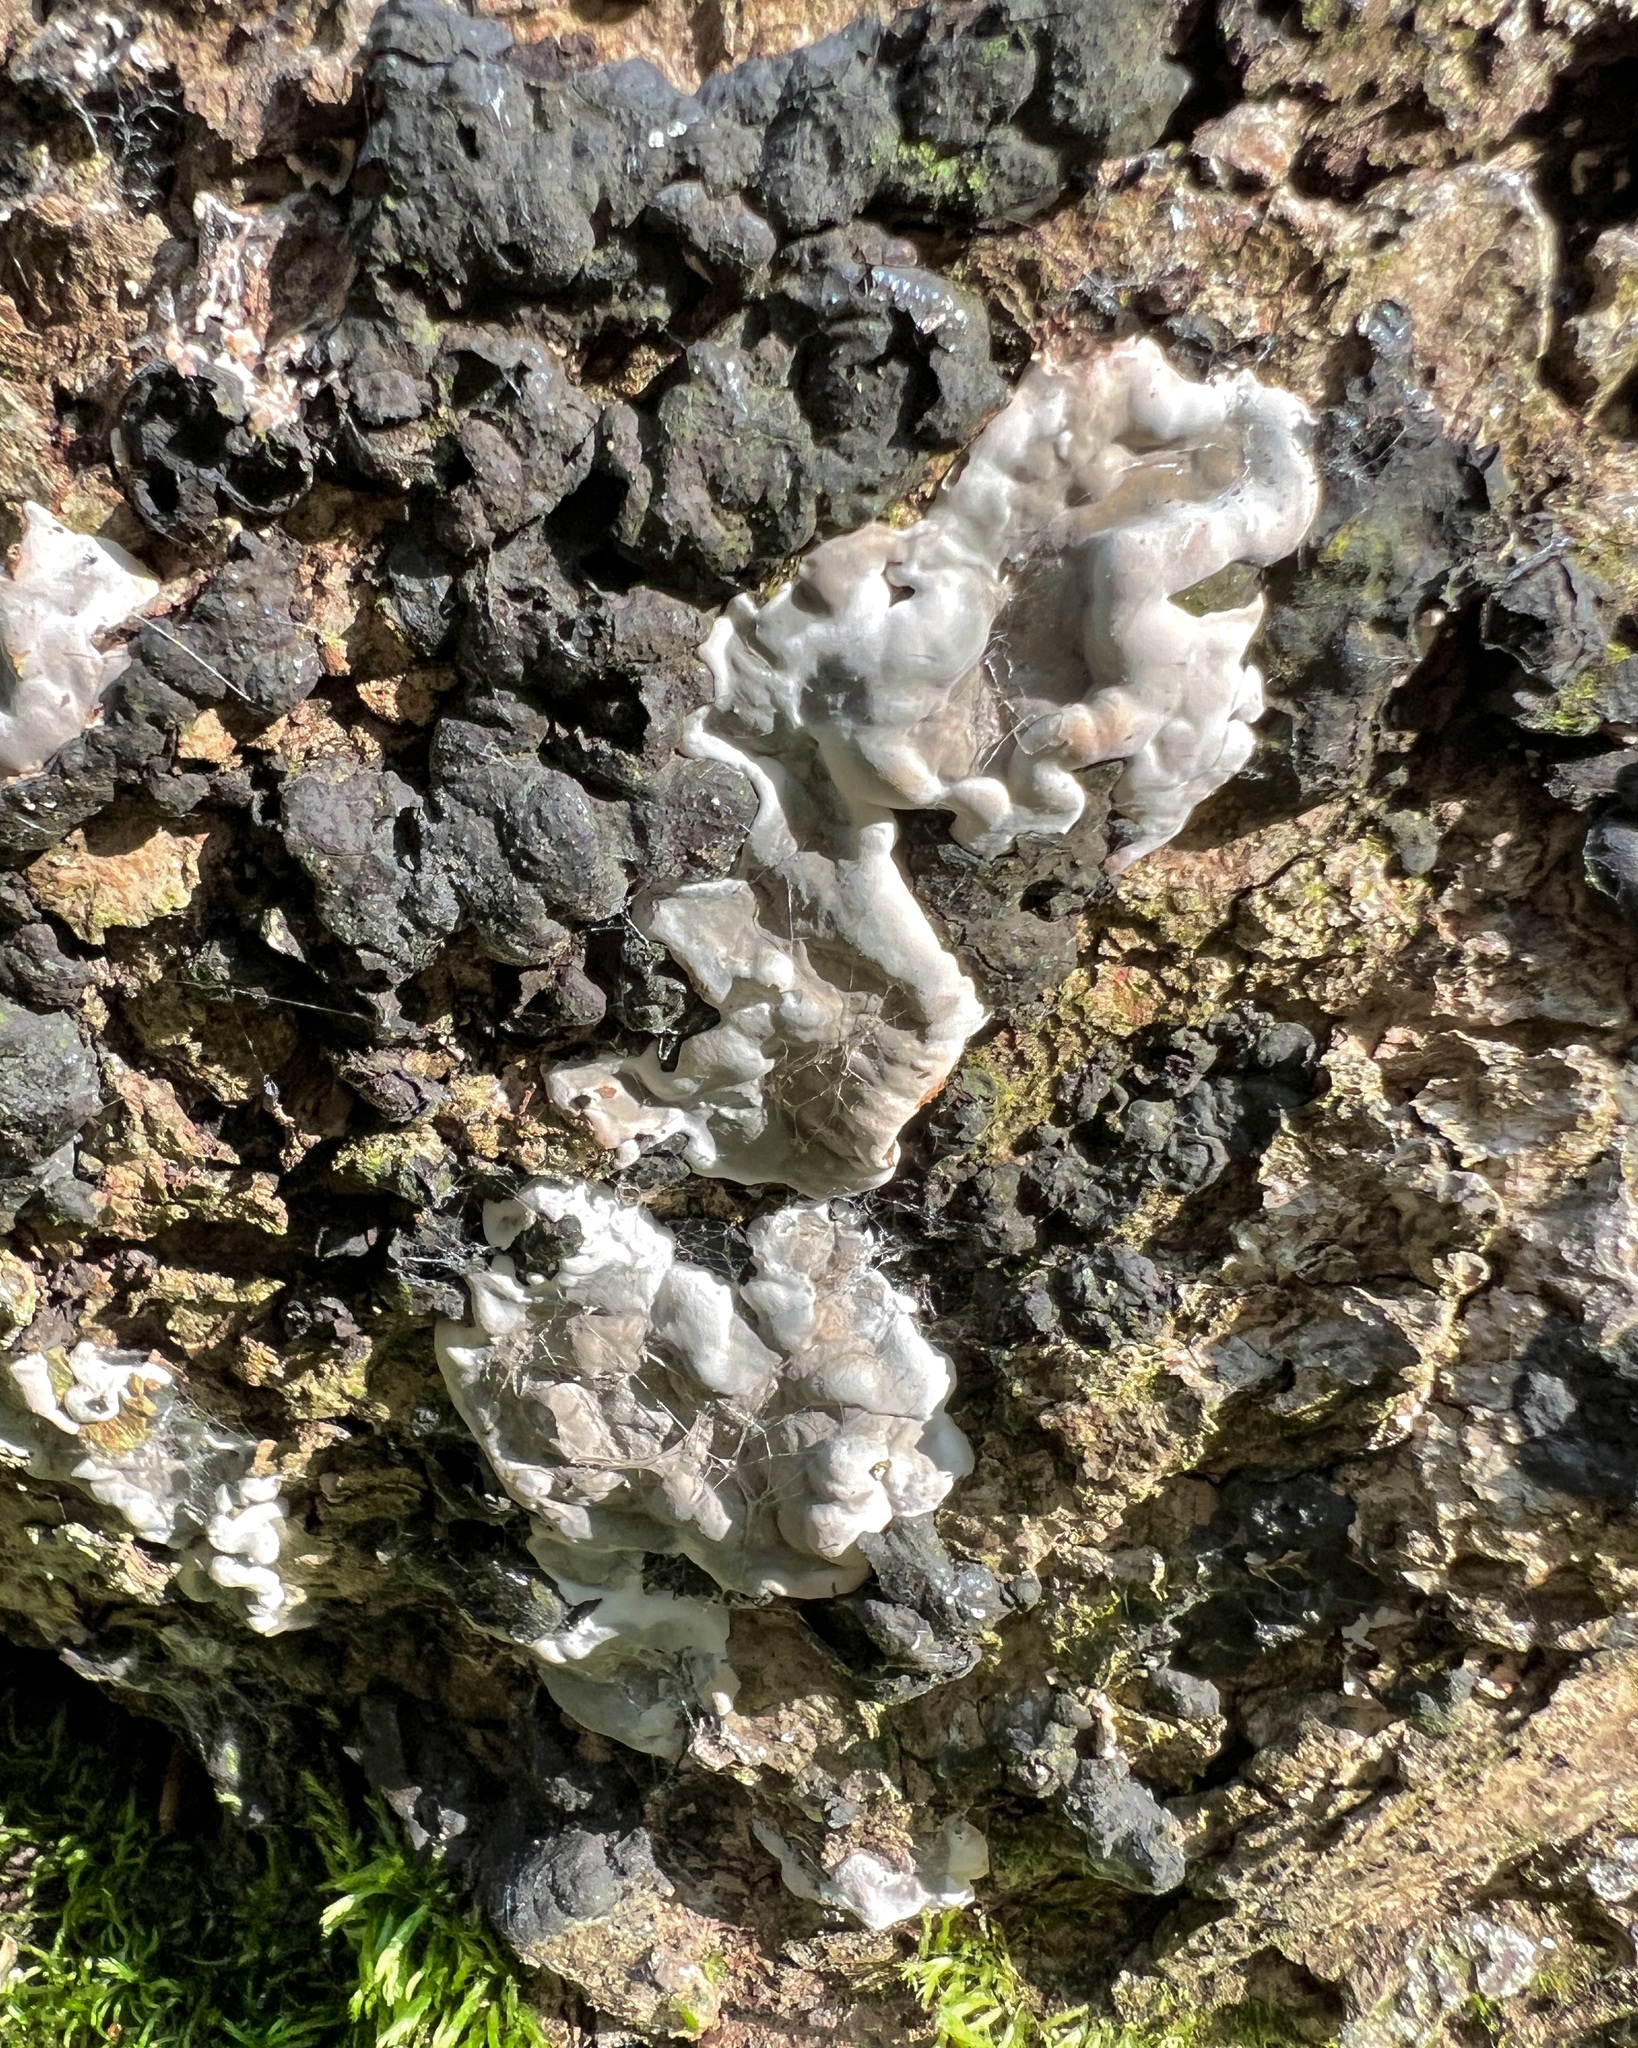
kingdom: Fungi
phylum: Ascomycota
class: Sordariomycetes
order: Xylariales
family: Xylariaceae
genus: Kretzschmaria
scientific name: Kretzschmaria deusta
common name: Brittle cinder
